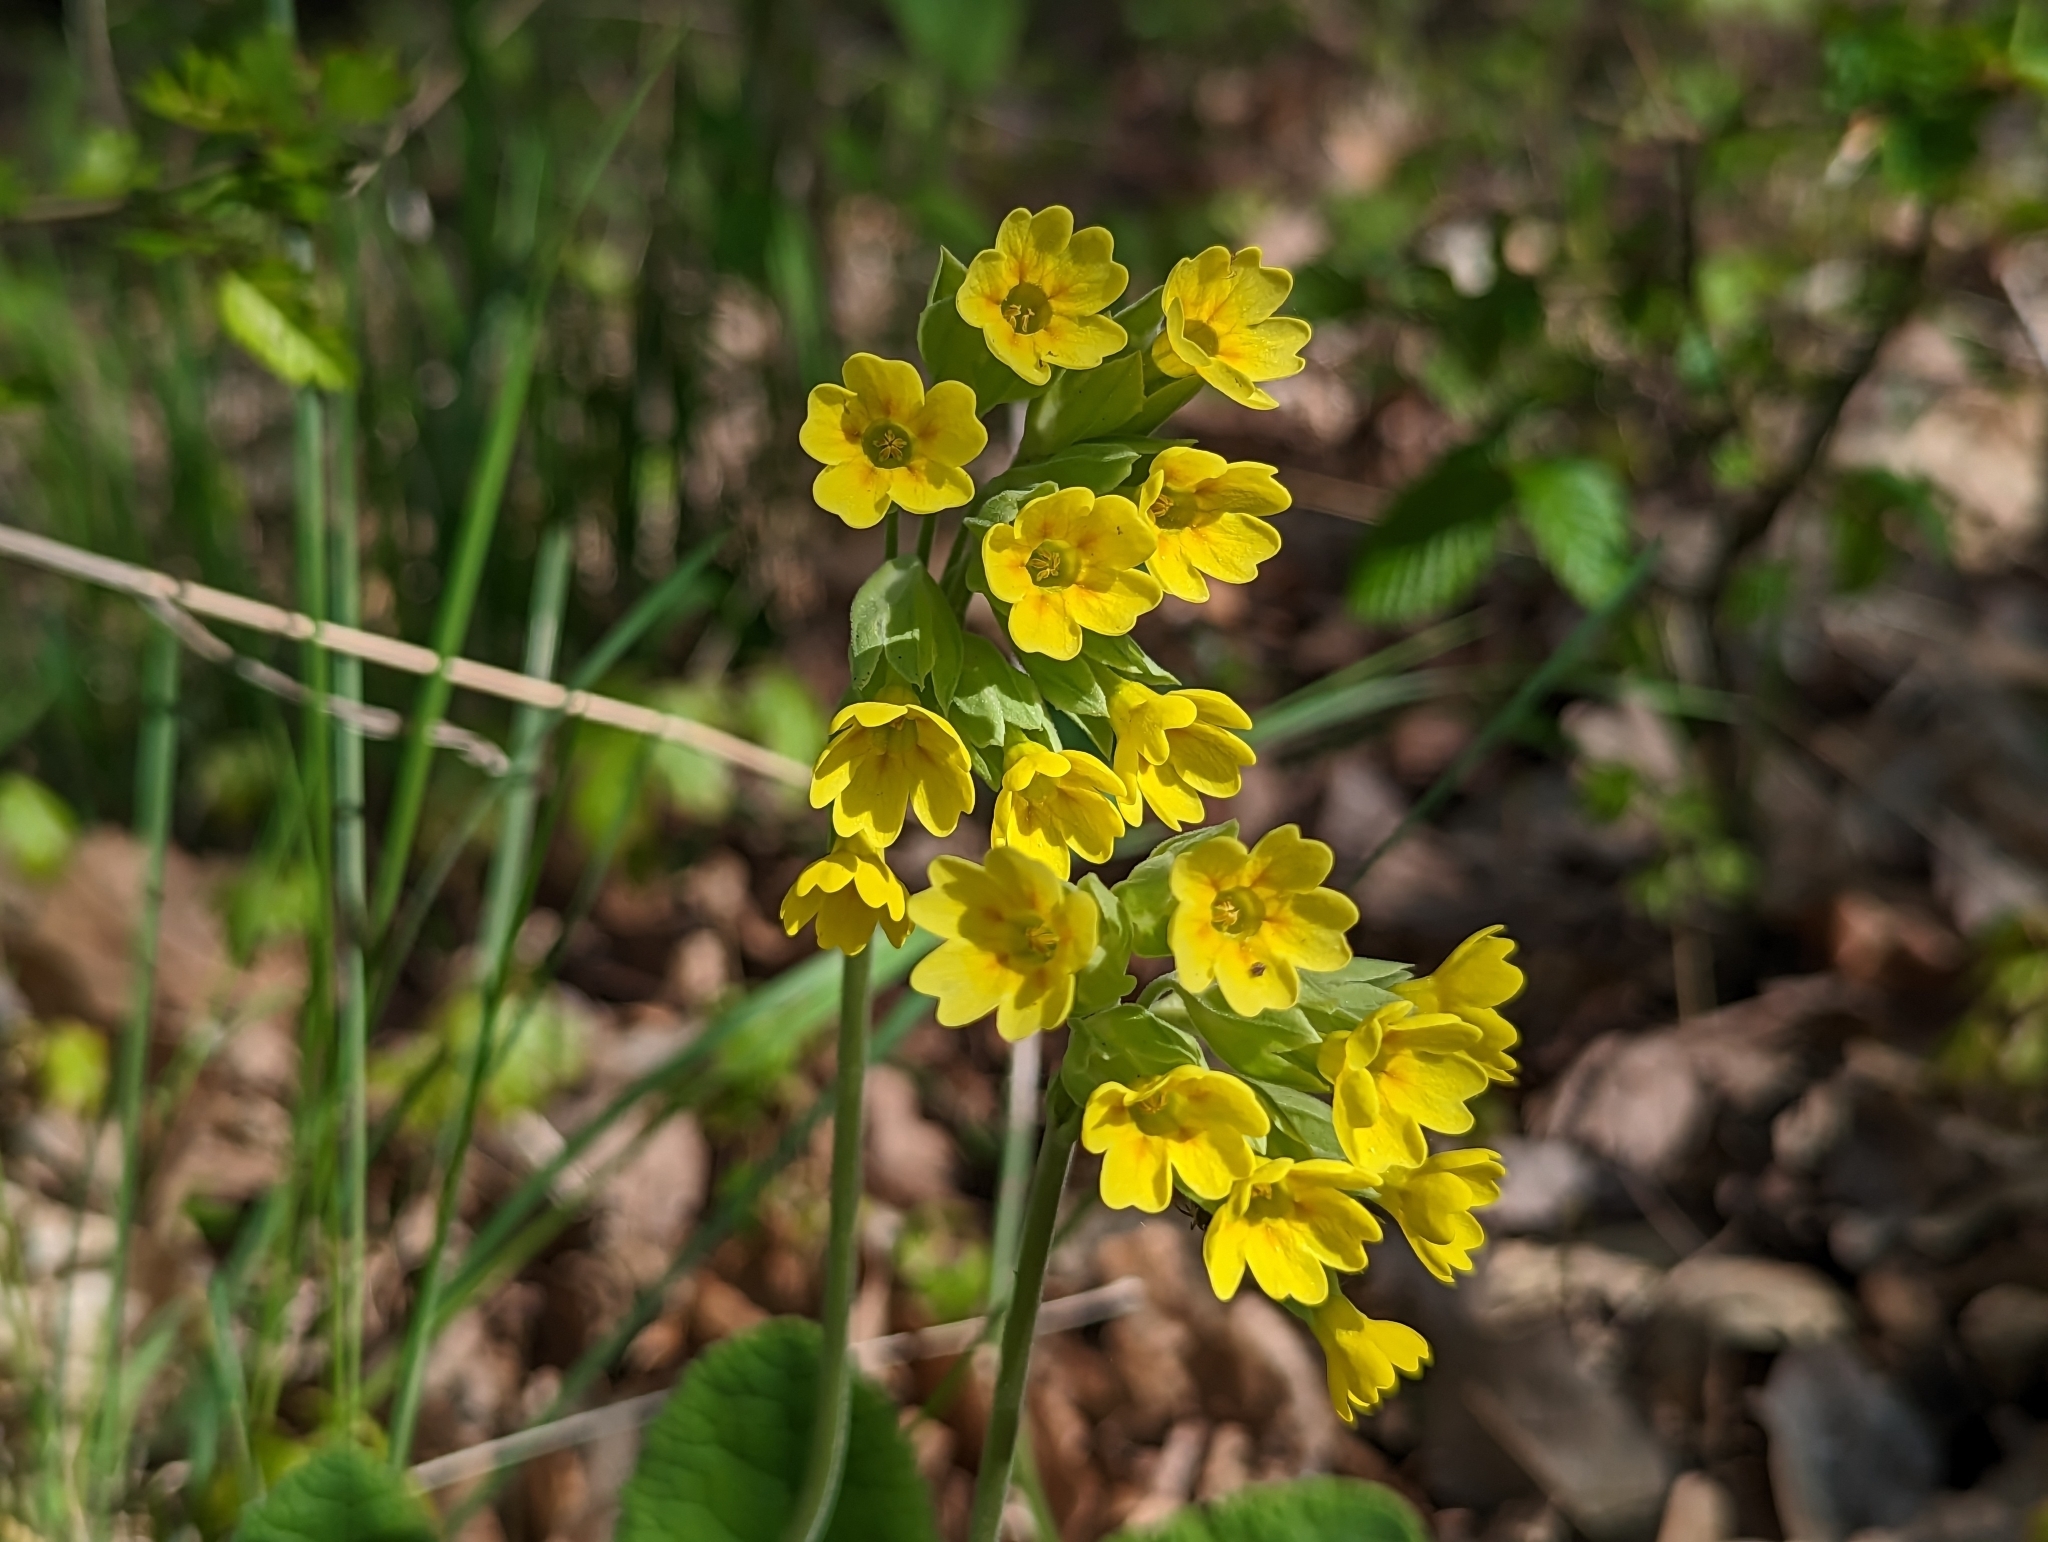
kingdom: Plantae
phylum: Tracheophyta
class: Magnoliopsida
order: Ericales
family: Primulaceae
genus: Primula
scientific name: Primula veris
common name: Cowslip
